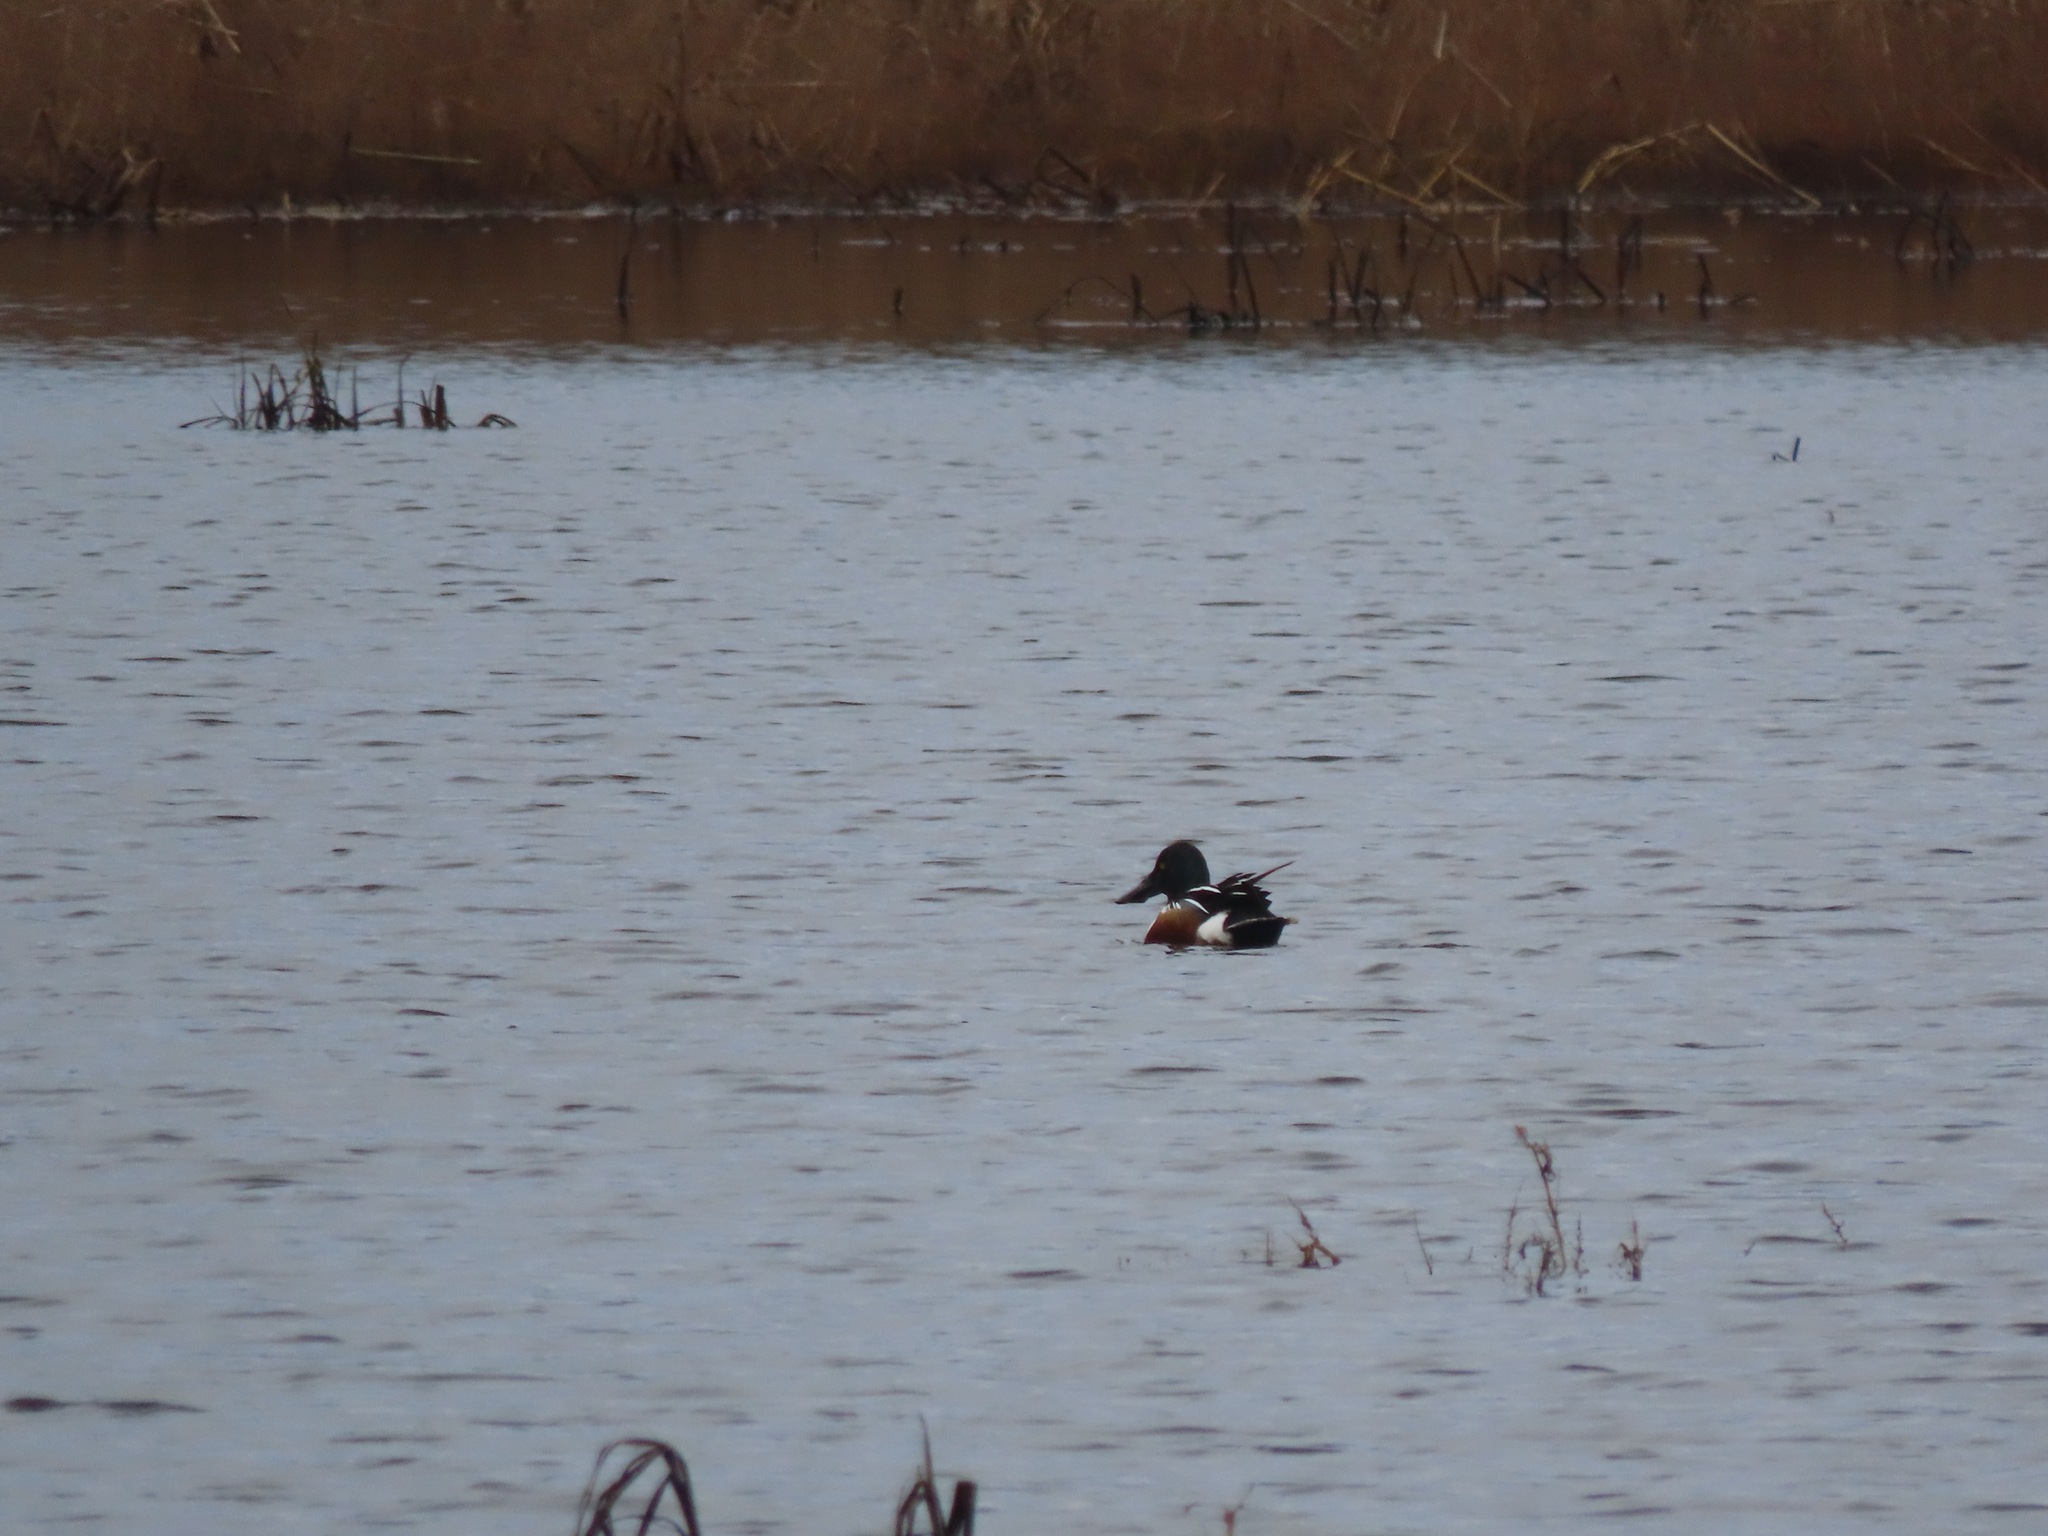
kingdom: Animalia
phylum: Chordata
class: Aves
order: Anseriformes
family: Anatidae
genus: Spatula
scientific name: Spatula clypeata
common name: Northern shoveler
